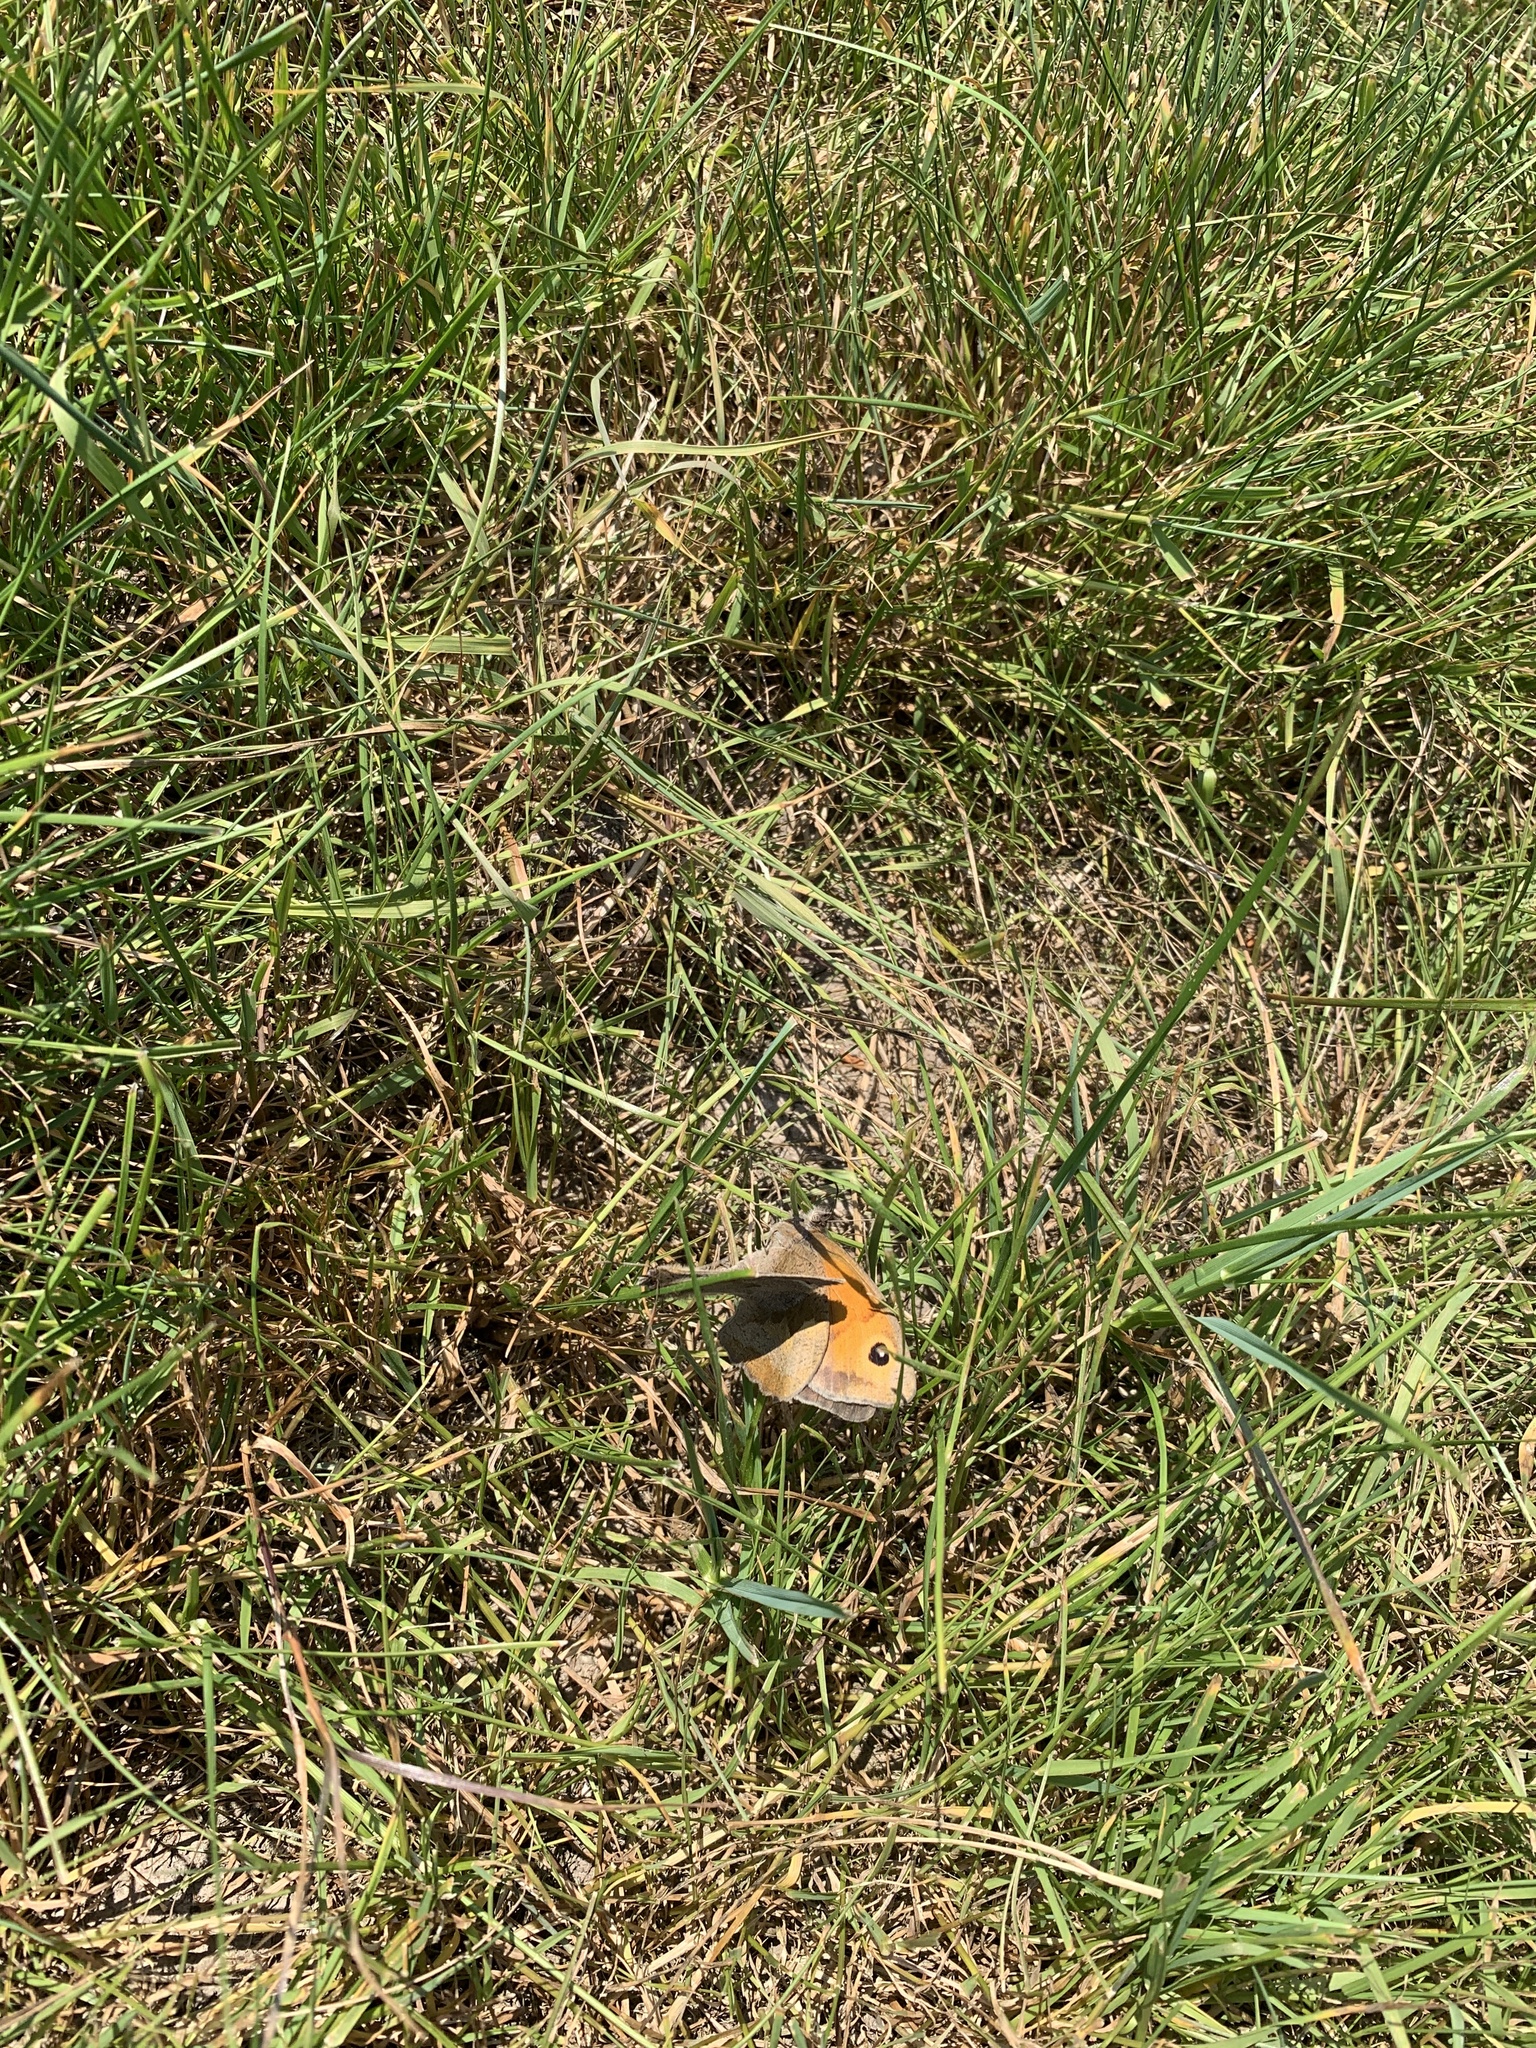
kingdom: Animalia
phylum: Arthropoda
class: Insecta
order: Lepidoptera
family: Nymphalidae
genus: Maniola
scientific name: Maniola jurtina
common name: Meadow brown
